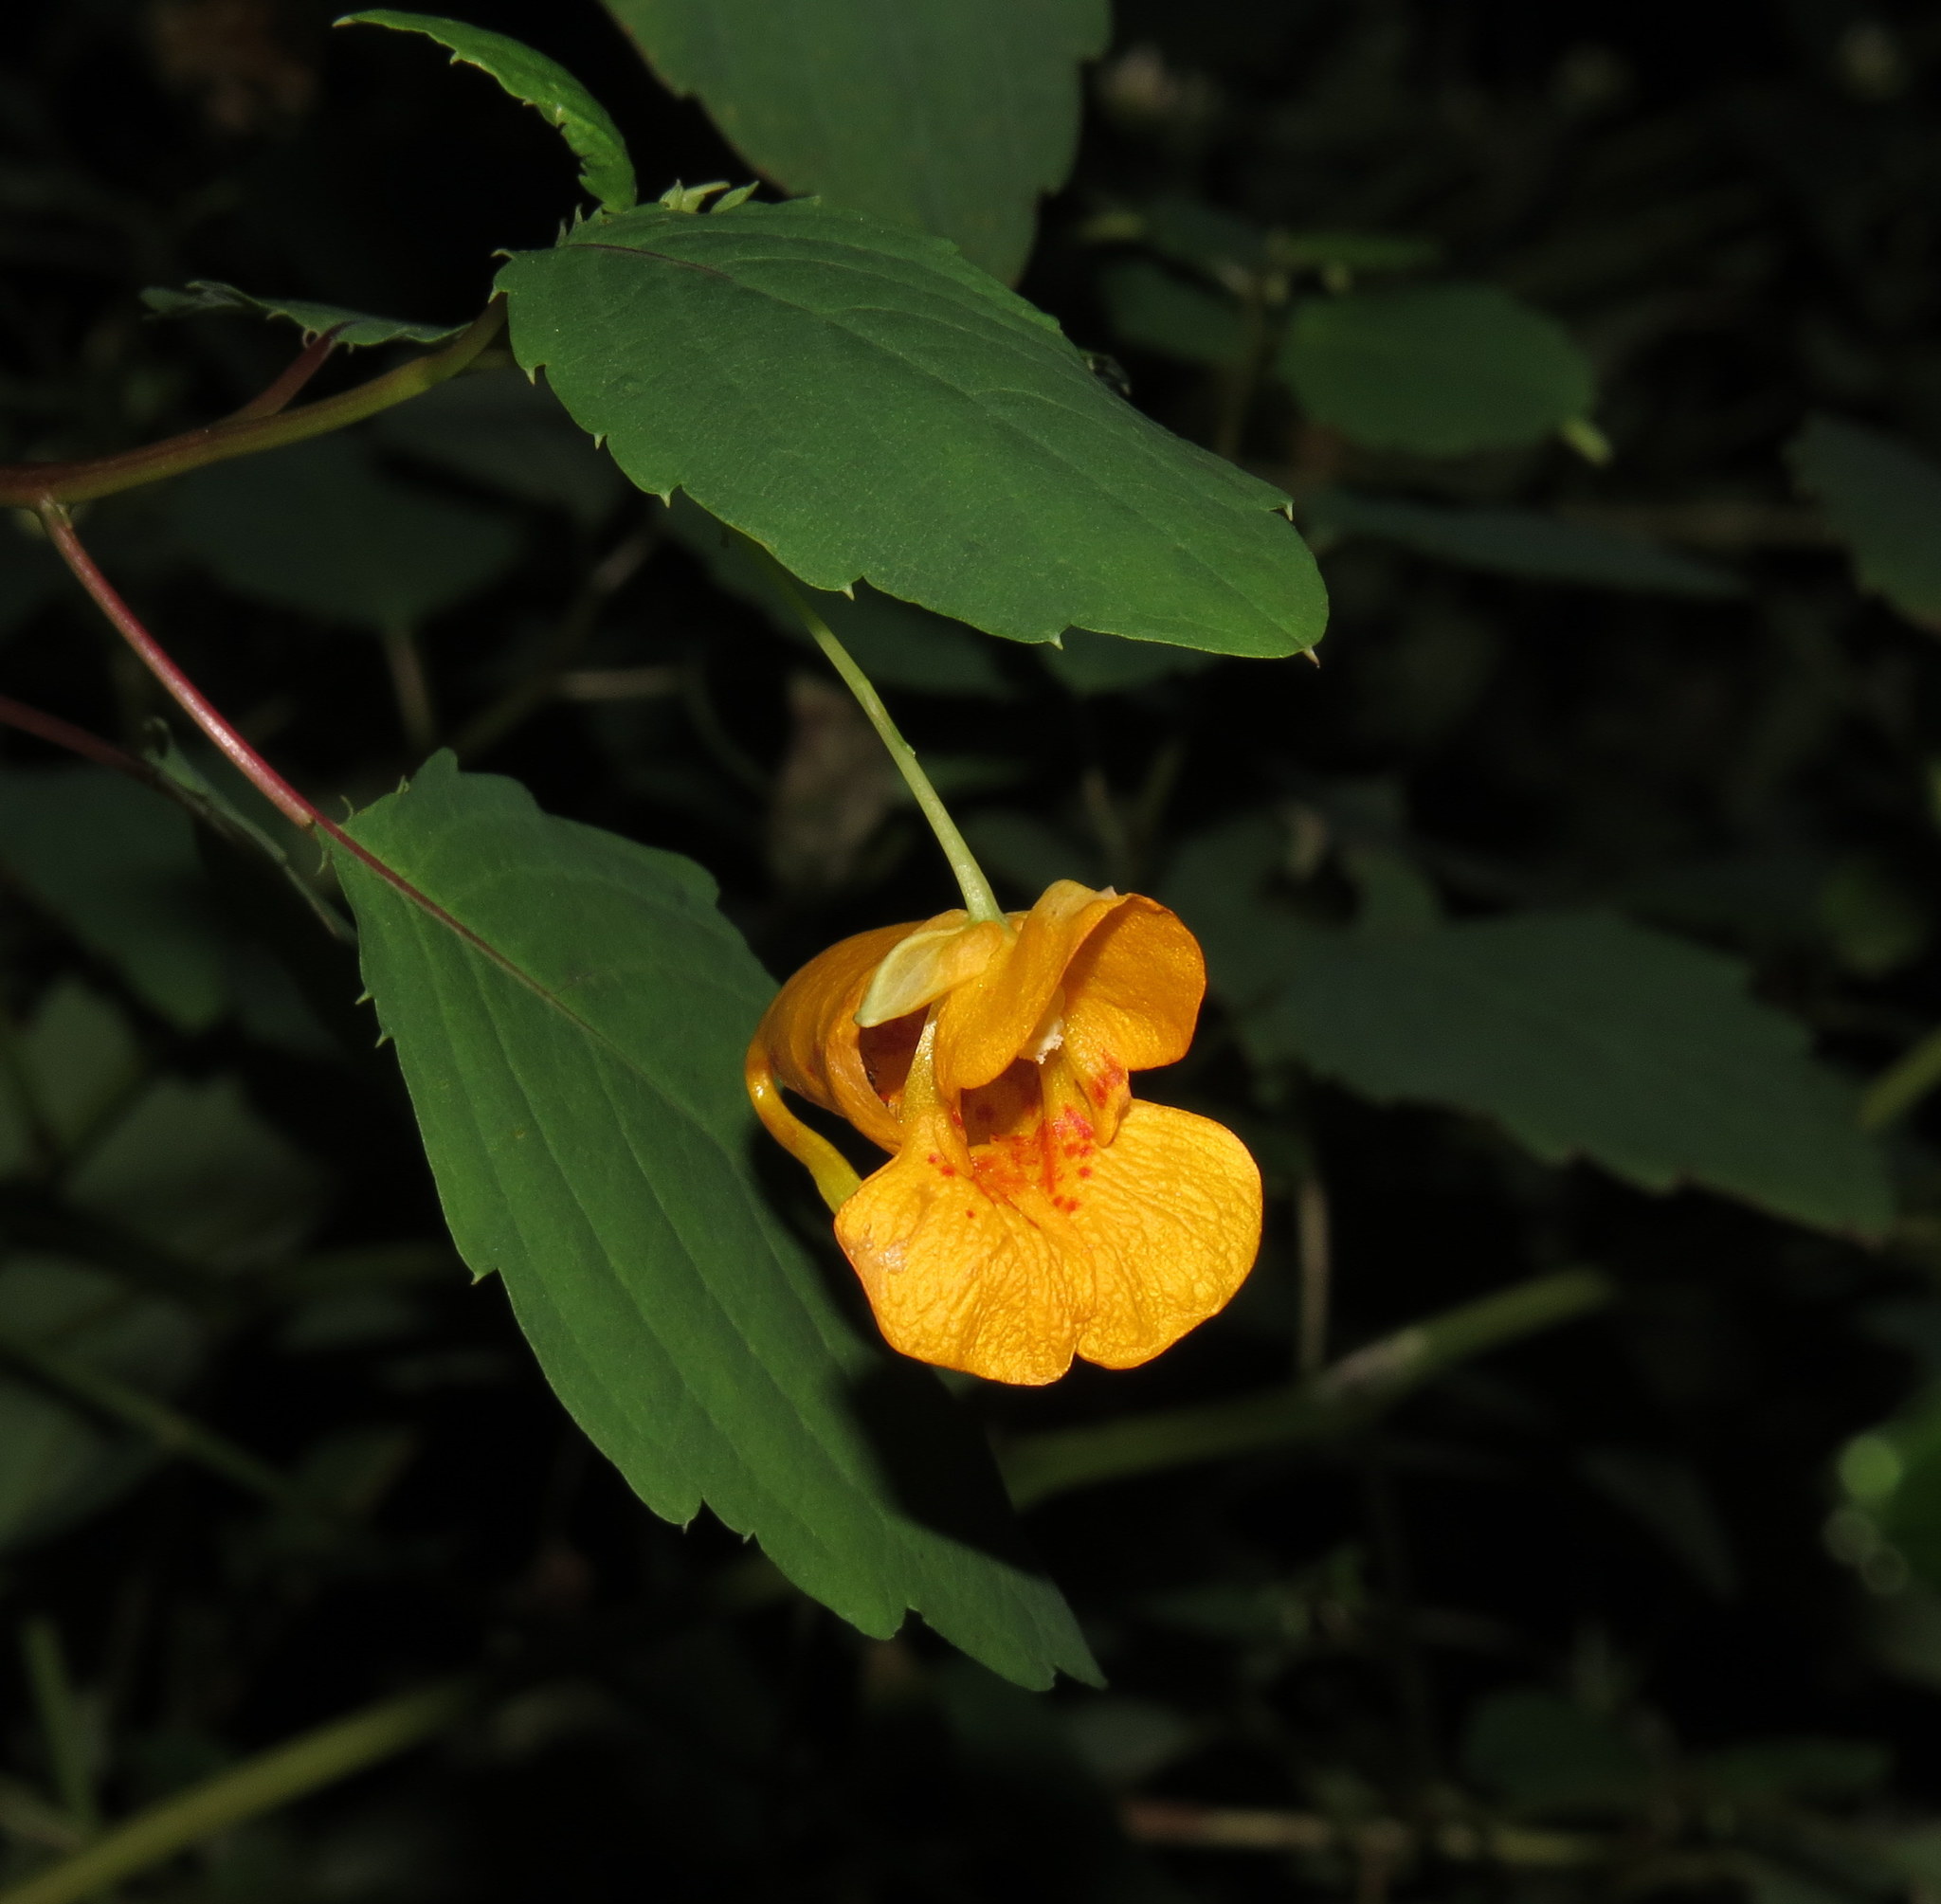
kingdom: Plantae
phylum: Tracheophyta
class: Magnoliopsida
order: Ericales
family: Balsaminaceae
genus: Impatiens
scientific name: Impatiens capensis
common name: Orange balsam
